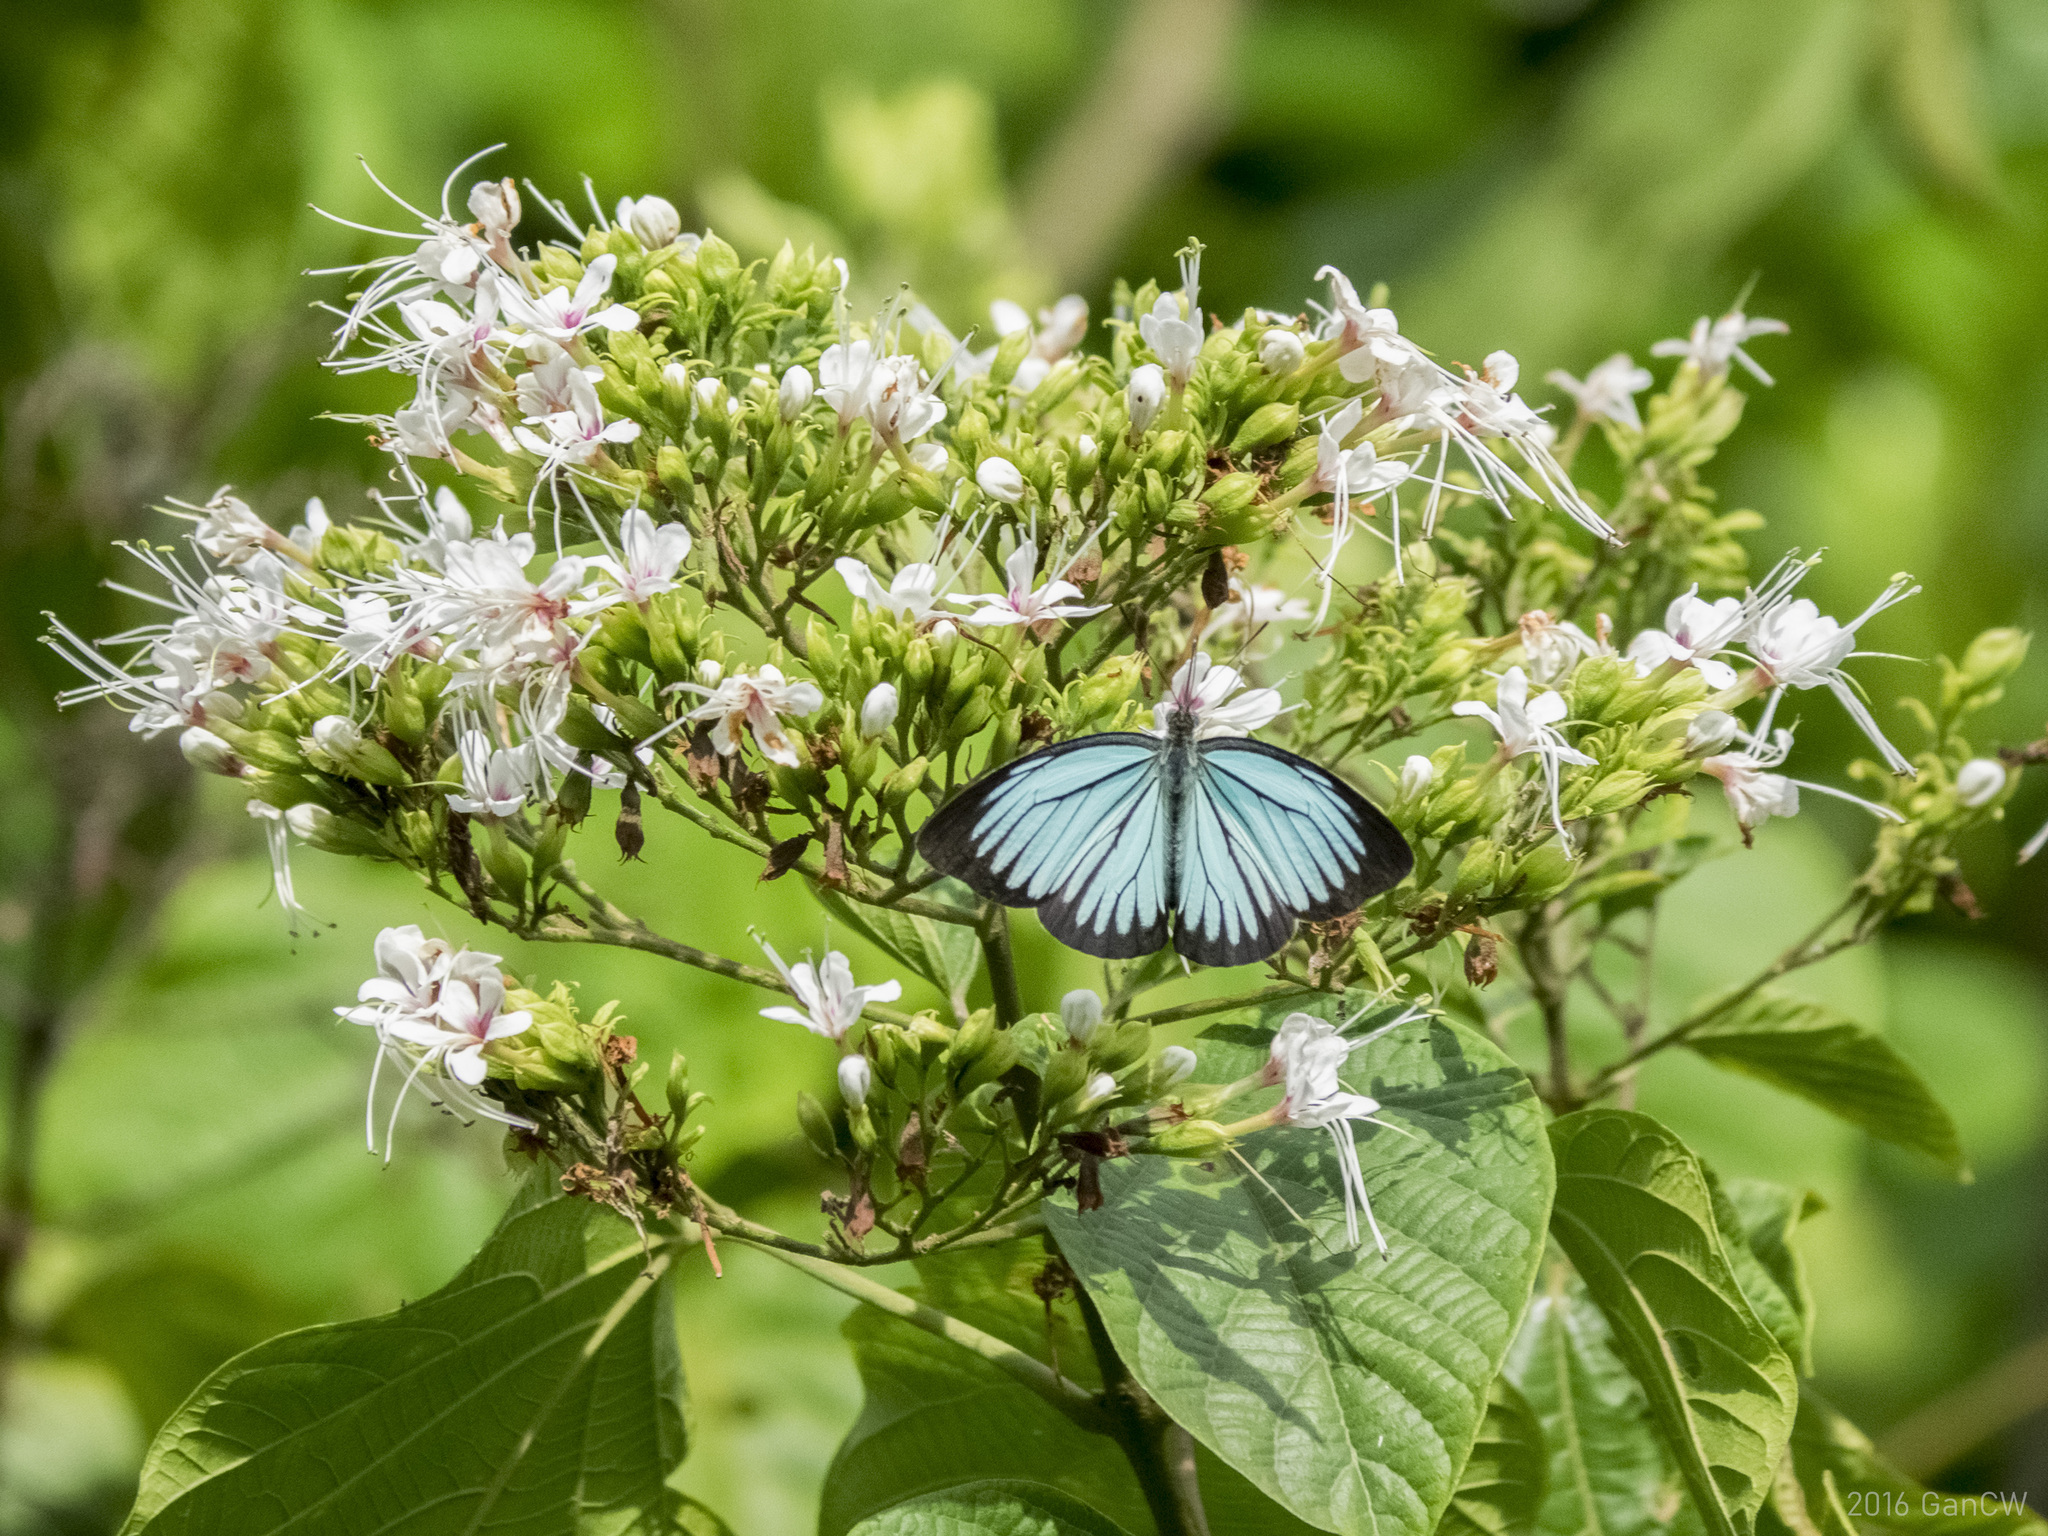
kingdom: Animalia
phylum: Arthropoda
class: Insecta
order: Lepidoptera
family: Pieridae
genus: Pareronia
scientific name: Pareronia valeria
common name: Common wanderer?
